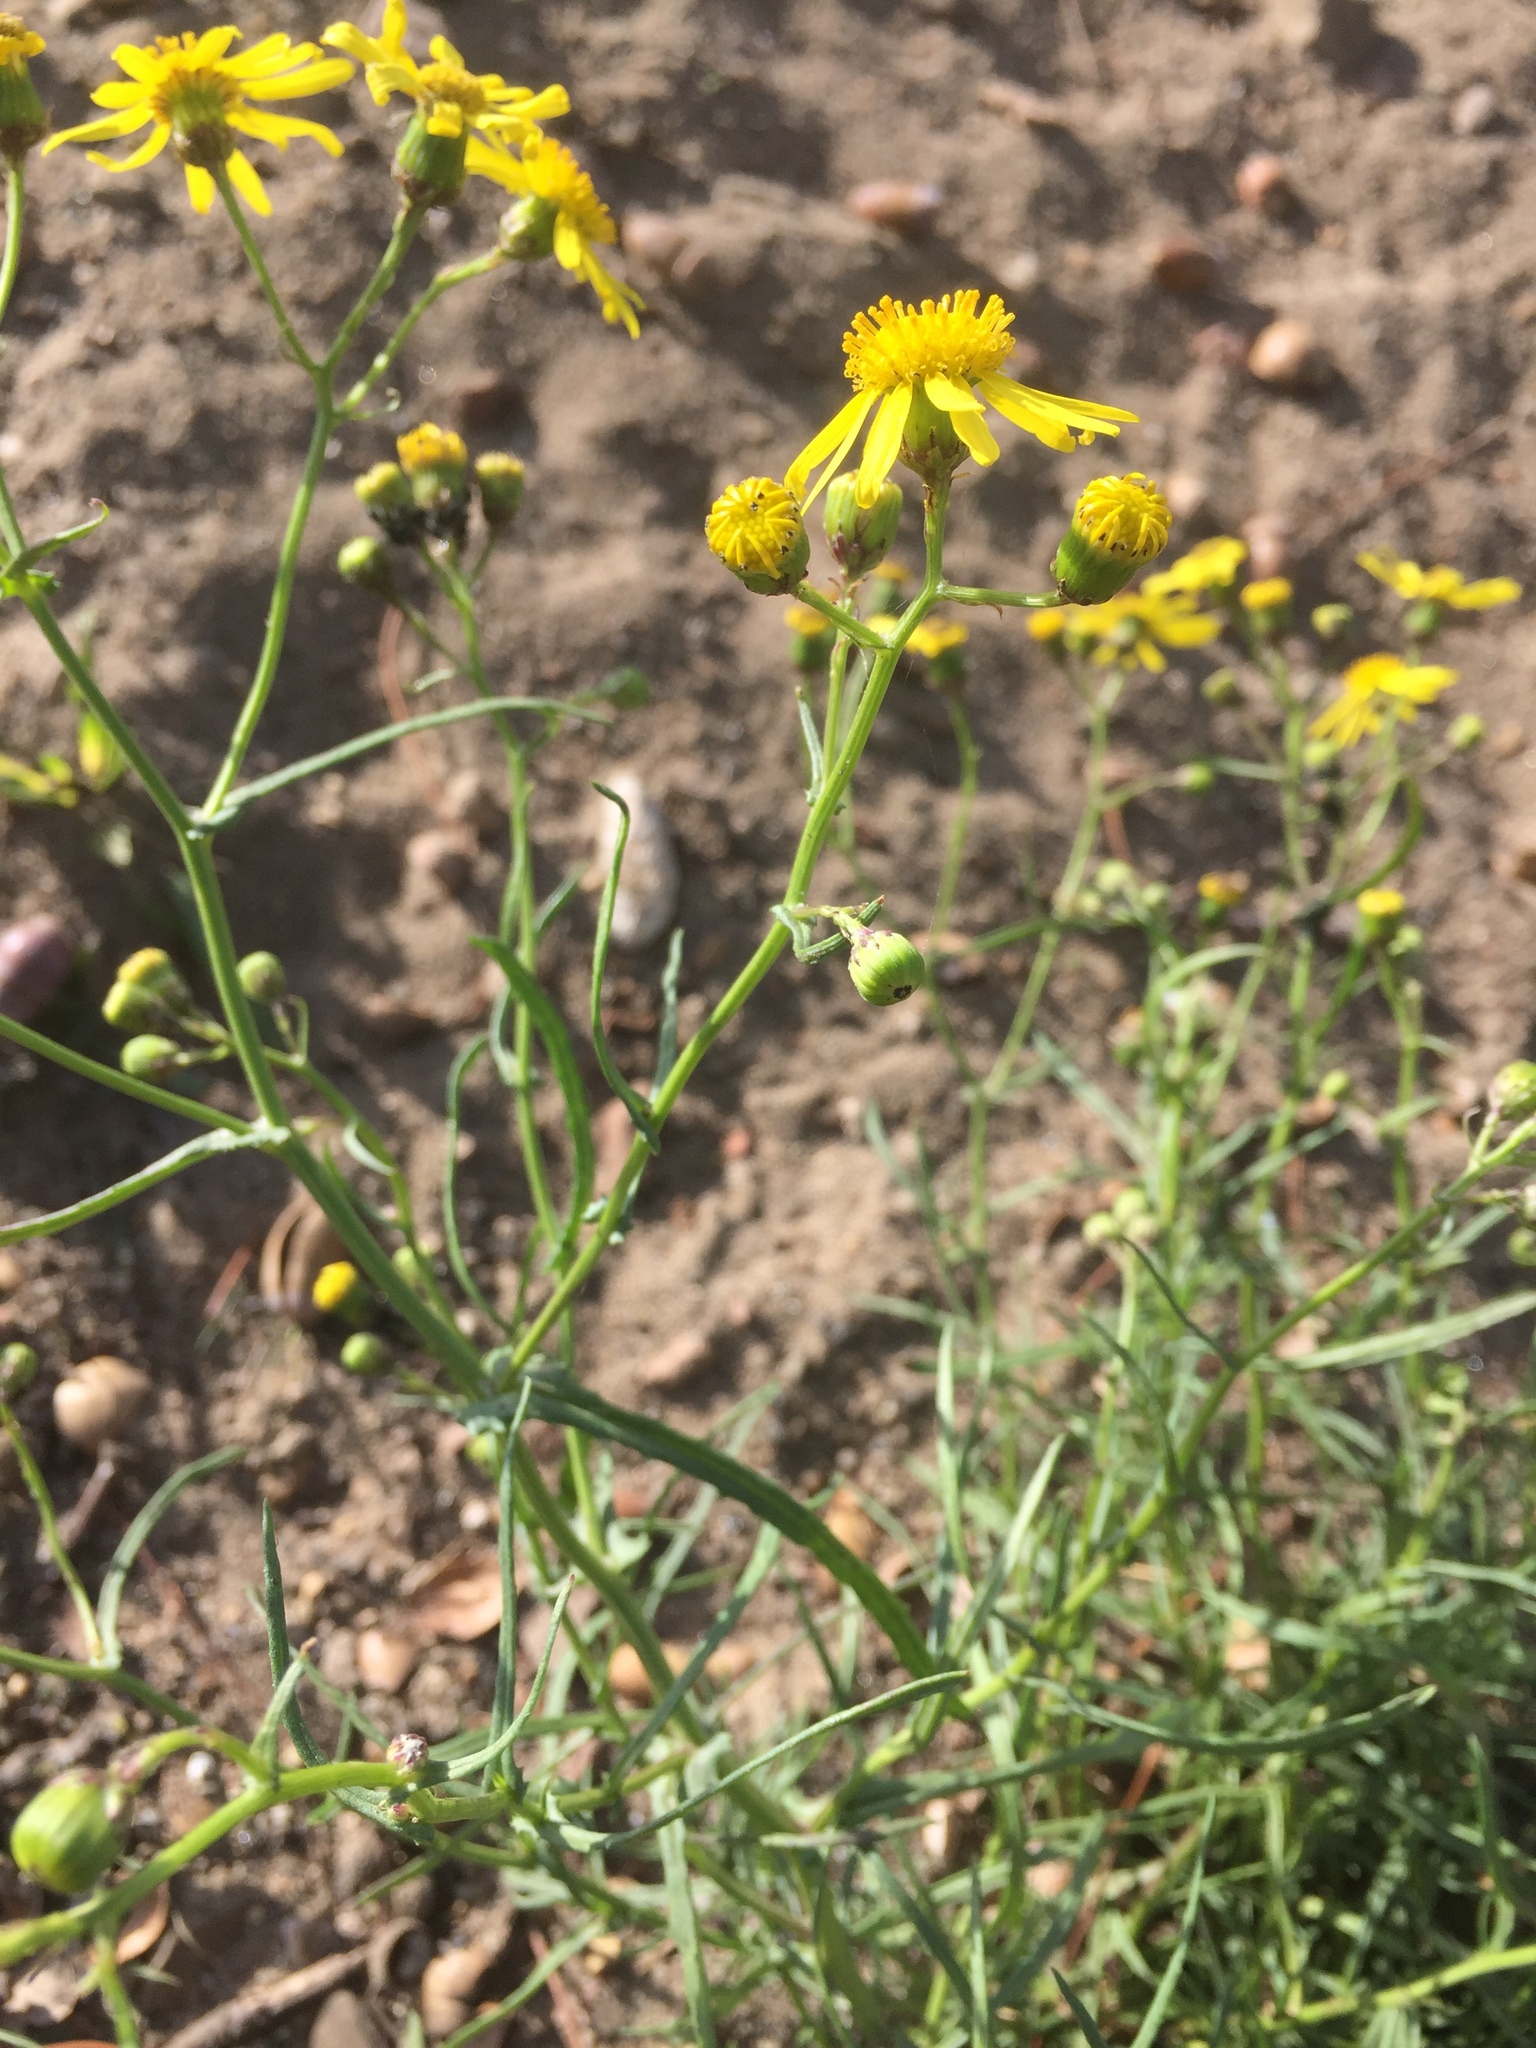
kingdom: Plantae
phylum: Tracheophyta
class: Magnoliopsida
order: Asterales
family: Asteraceae
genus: Senecio
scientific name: Senecio inaequidens
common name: Narrow-leaved ragwort
